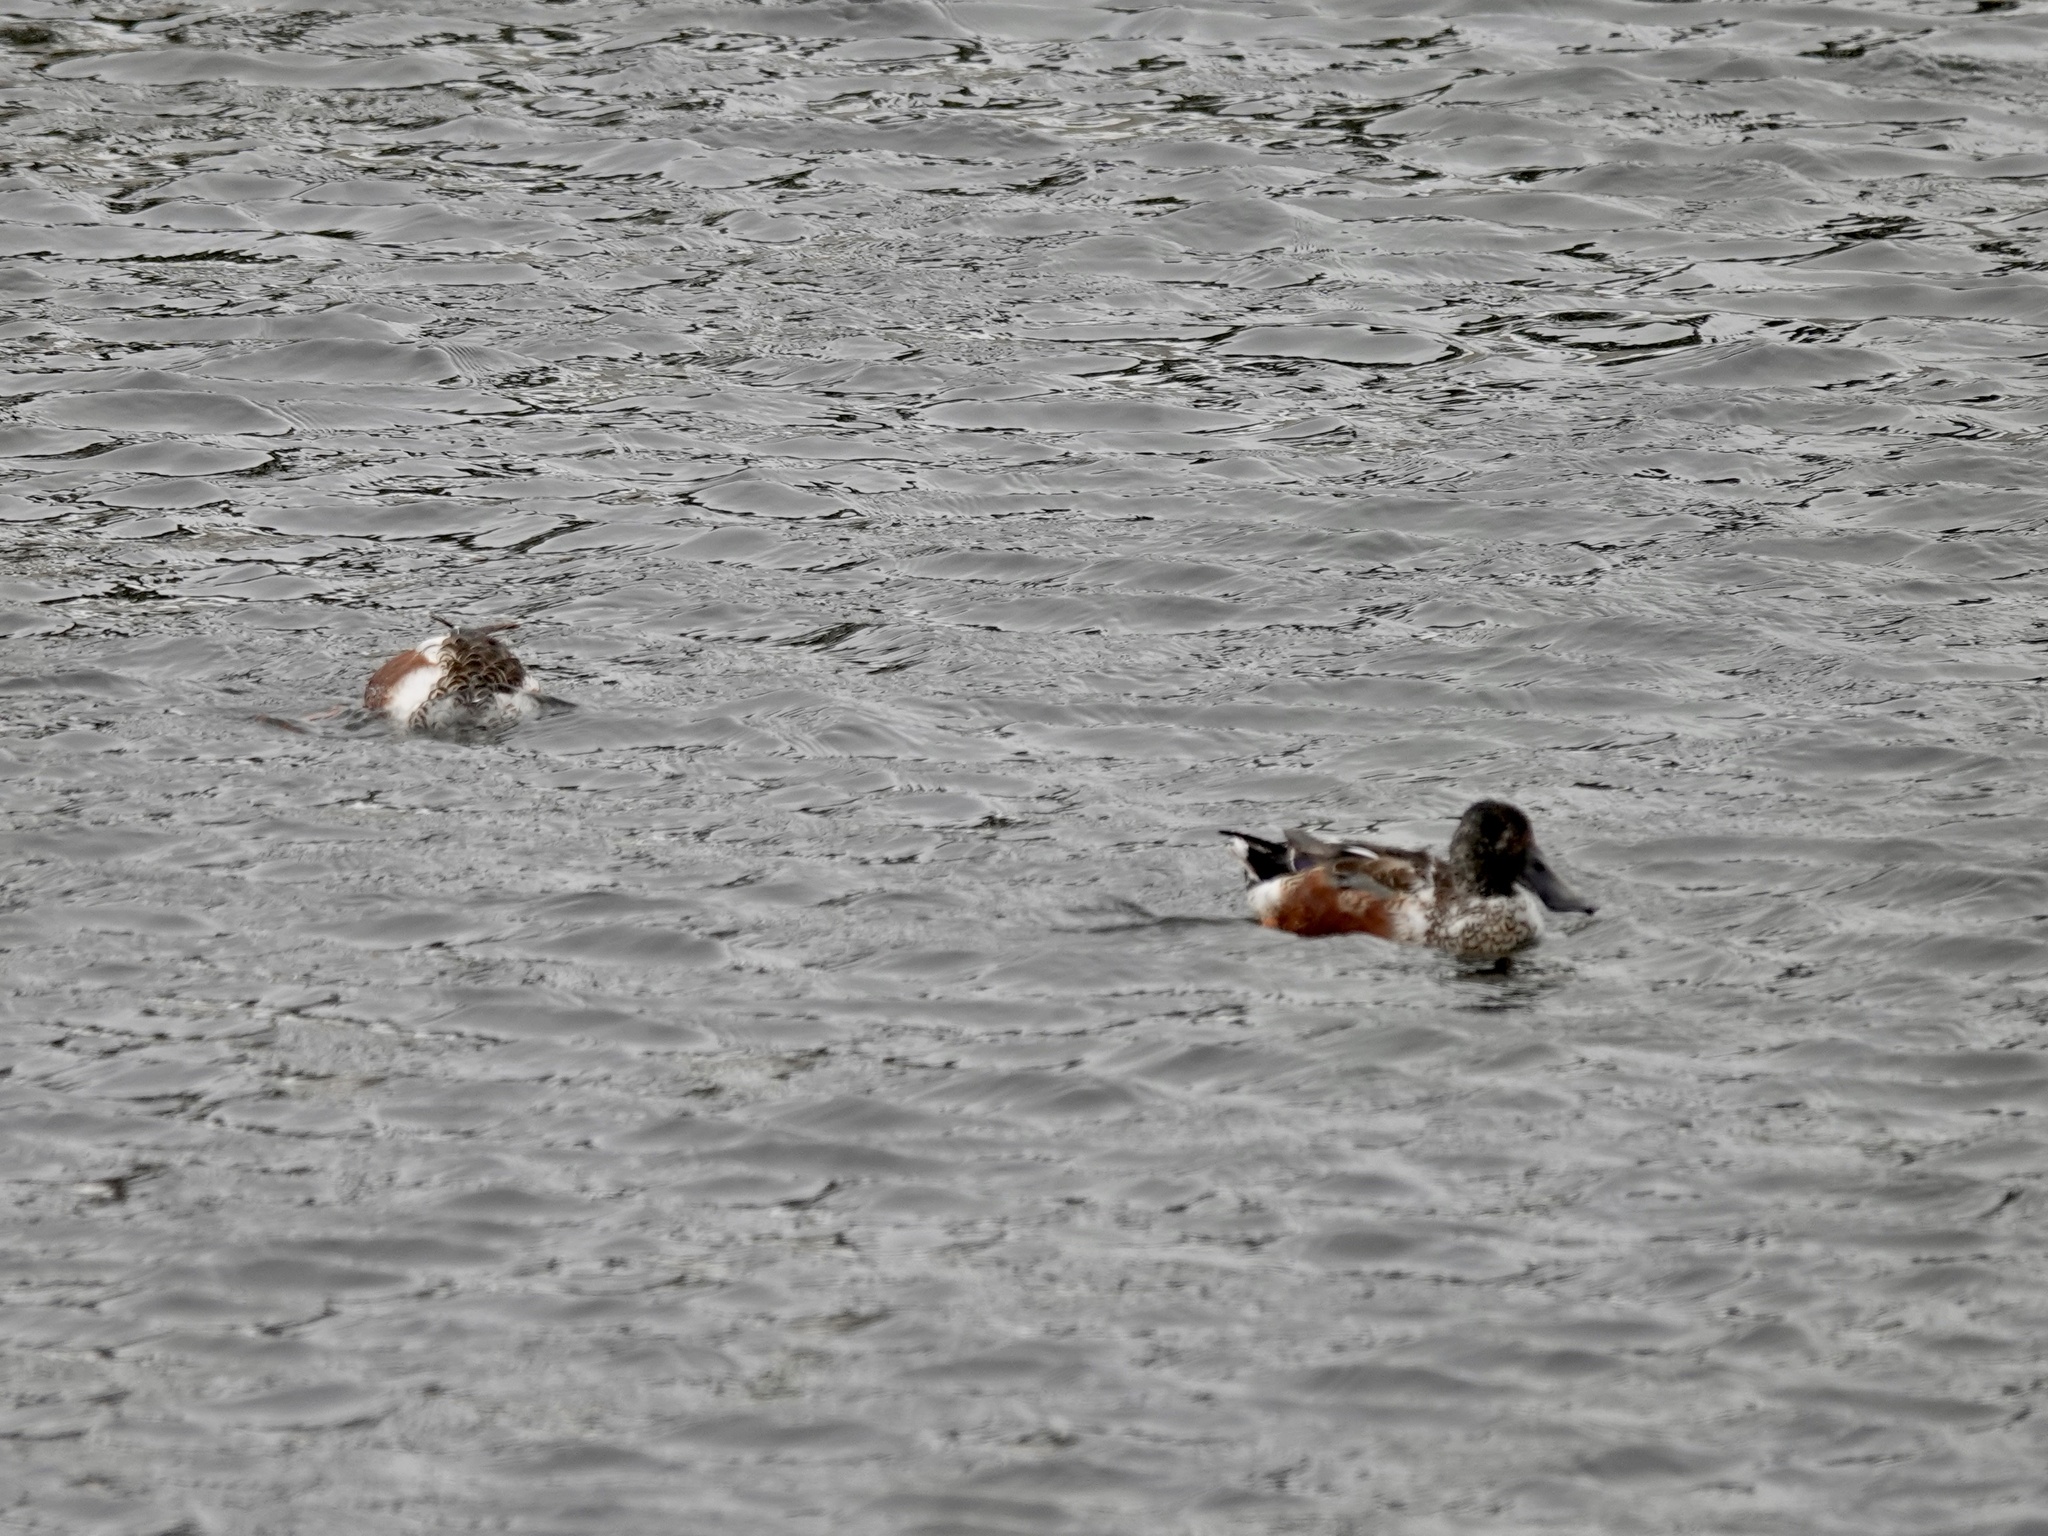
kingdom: Animalia
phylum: Chordata
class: Aves
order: Anseriformes
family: Anatidae
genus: Spatula
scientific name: Spatula clypeata
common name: Northern shoveler
